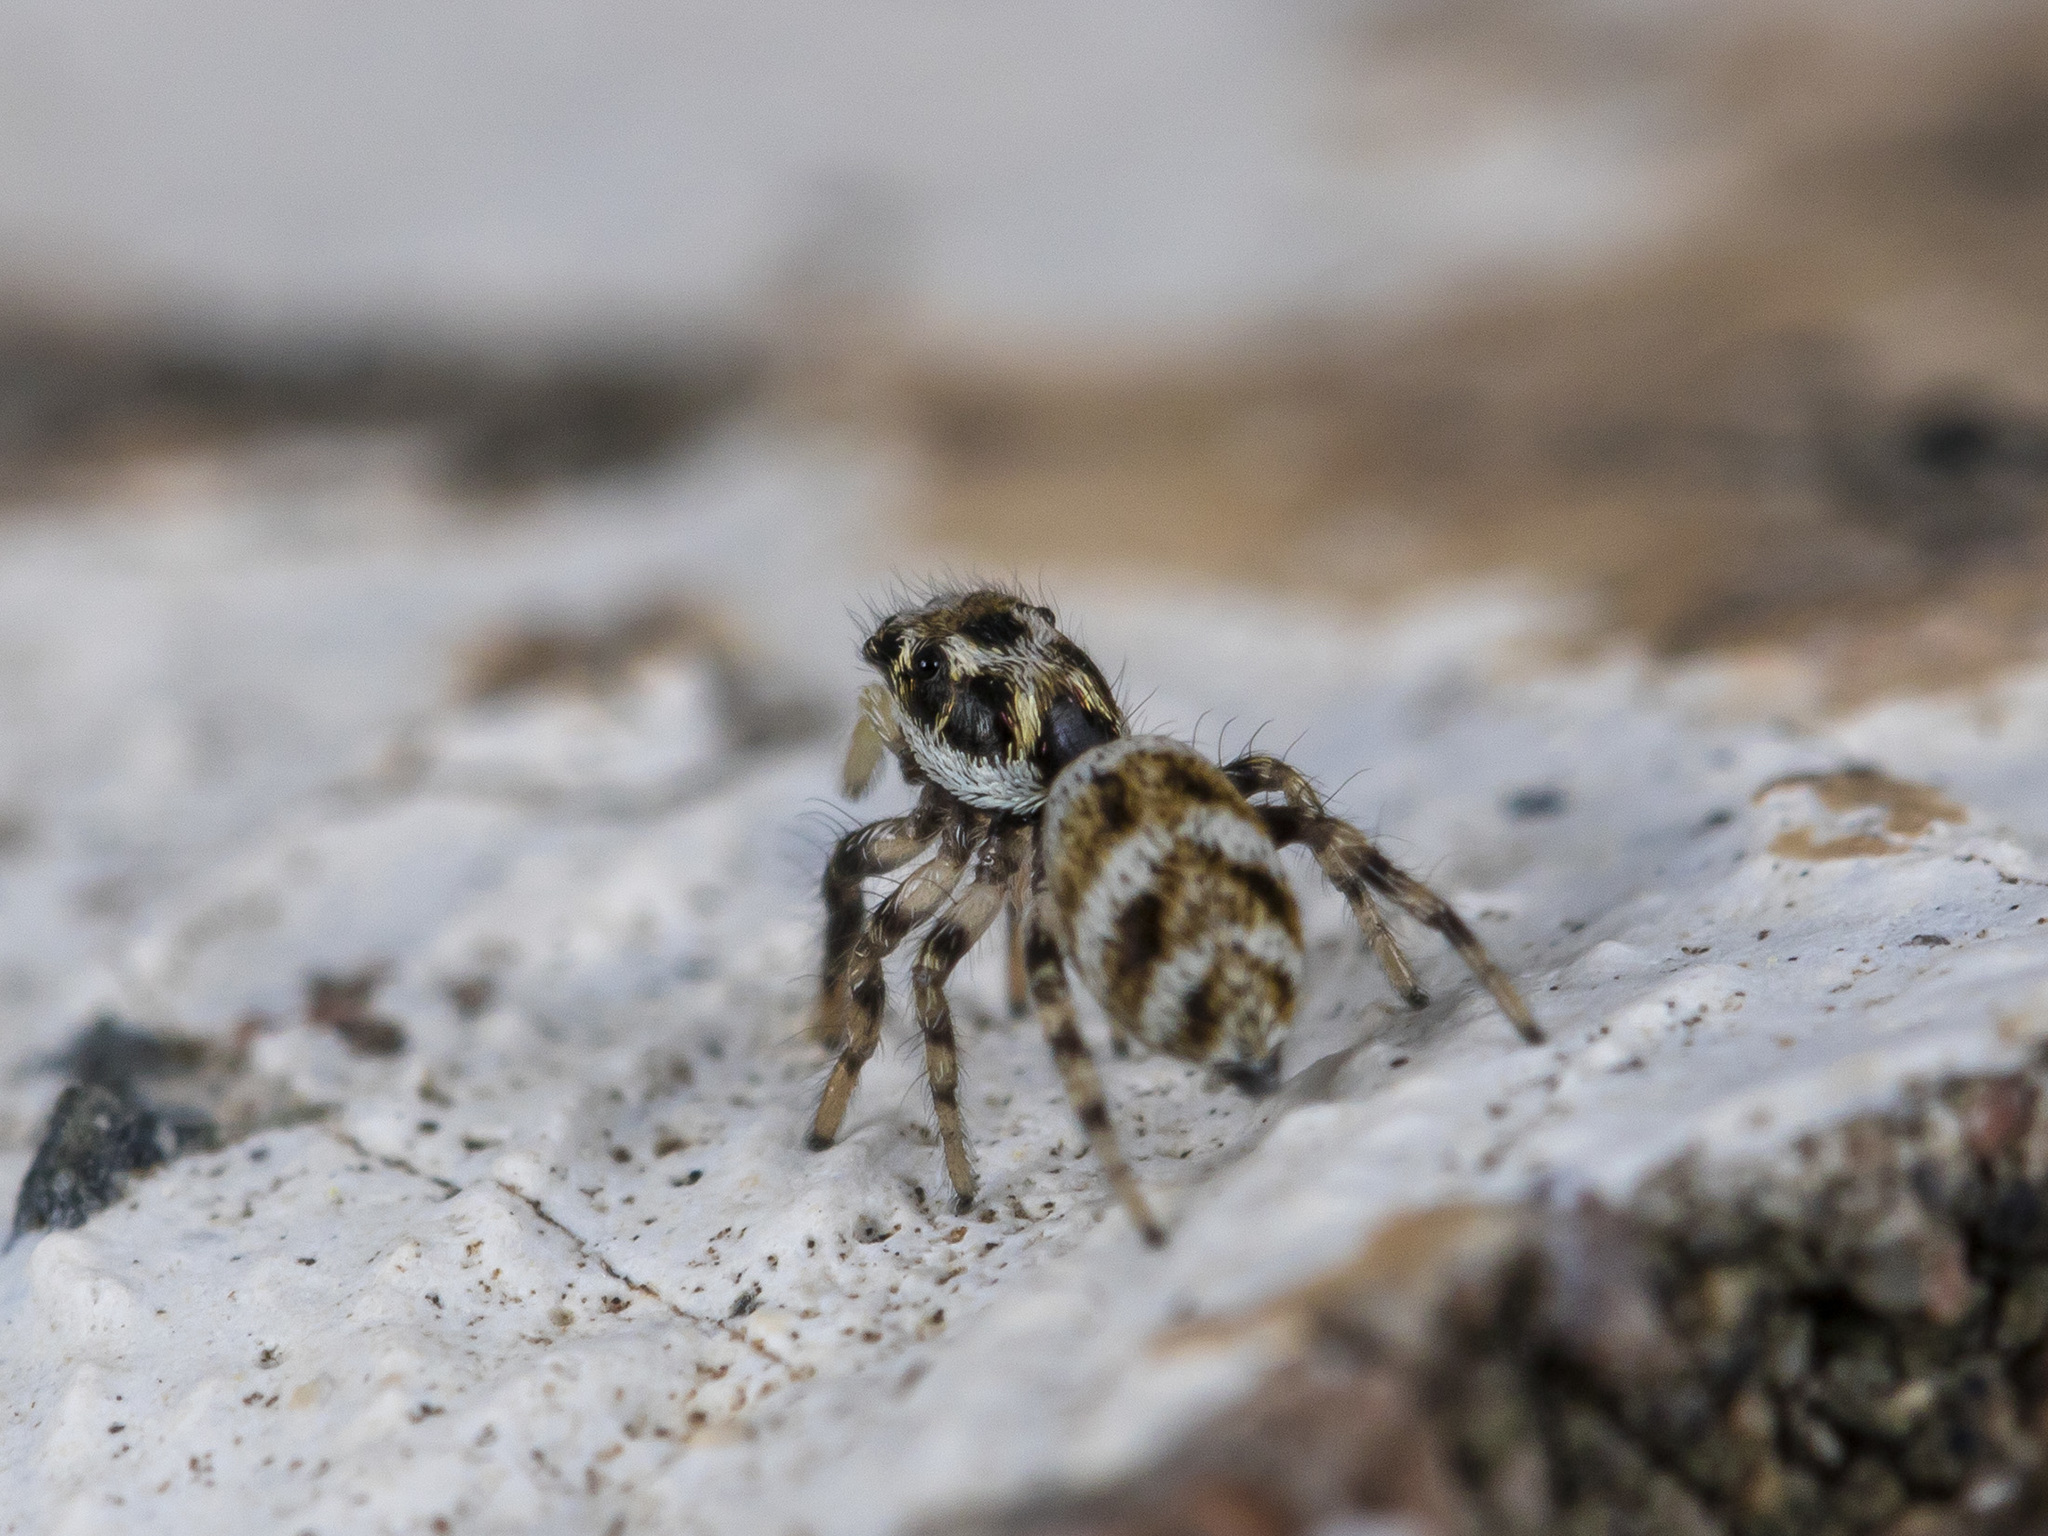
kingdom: Animalia
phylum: Arthropoda
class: Arachnida
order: Araneae
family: Salticidae
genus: Salticus
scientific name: Salticus scenicus
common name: Zebra jumper
